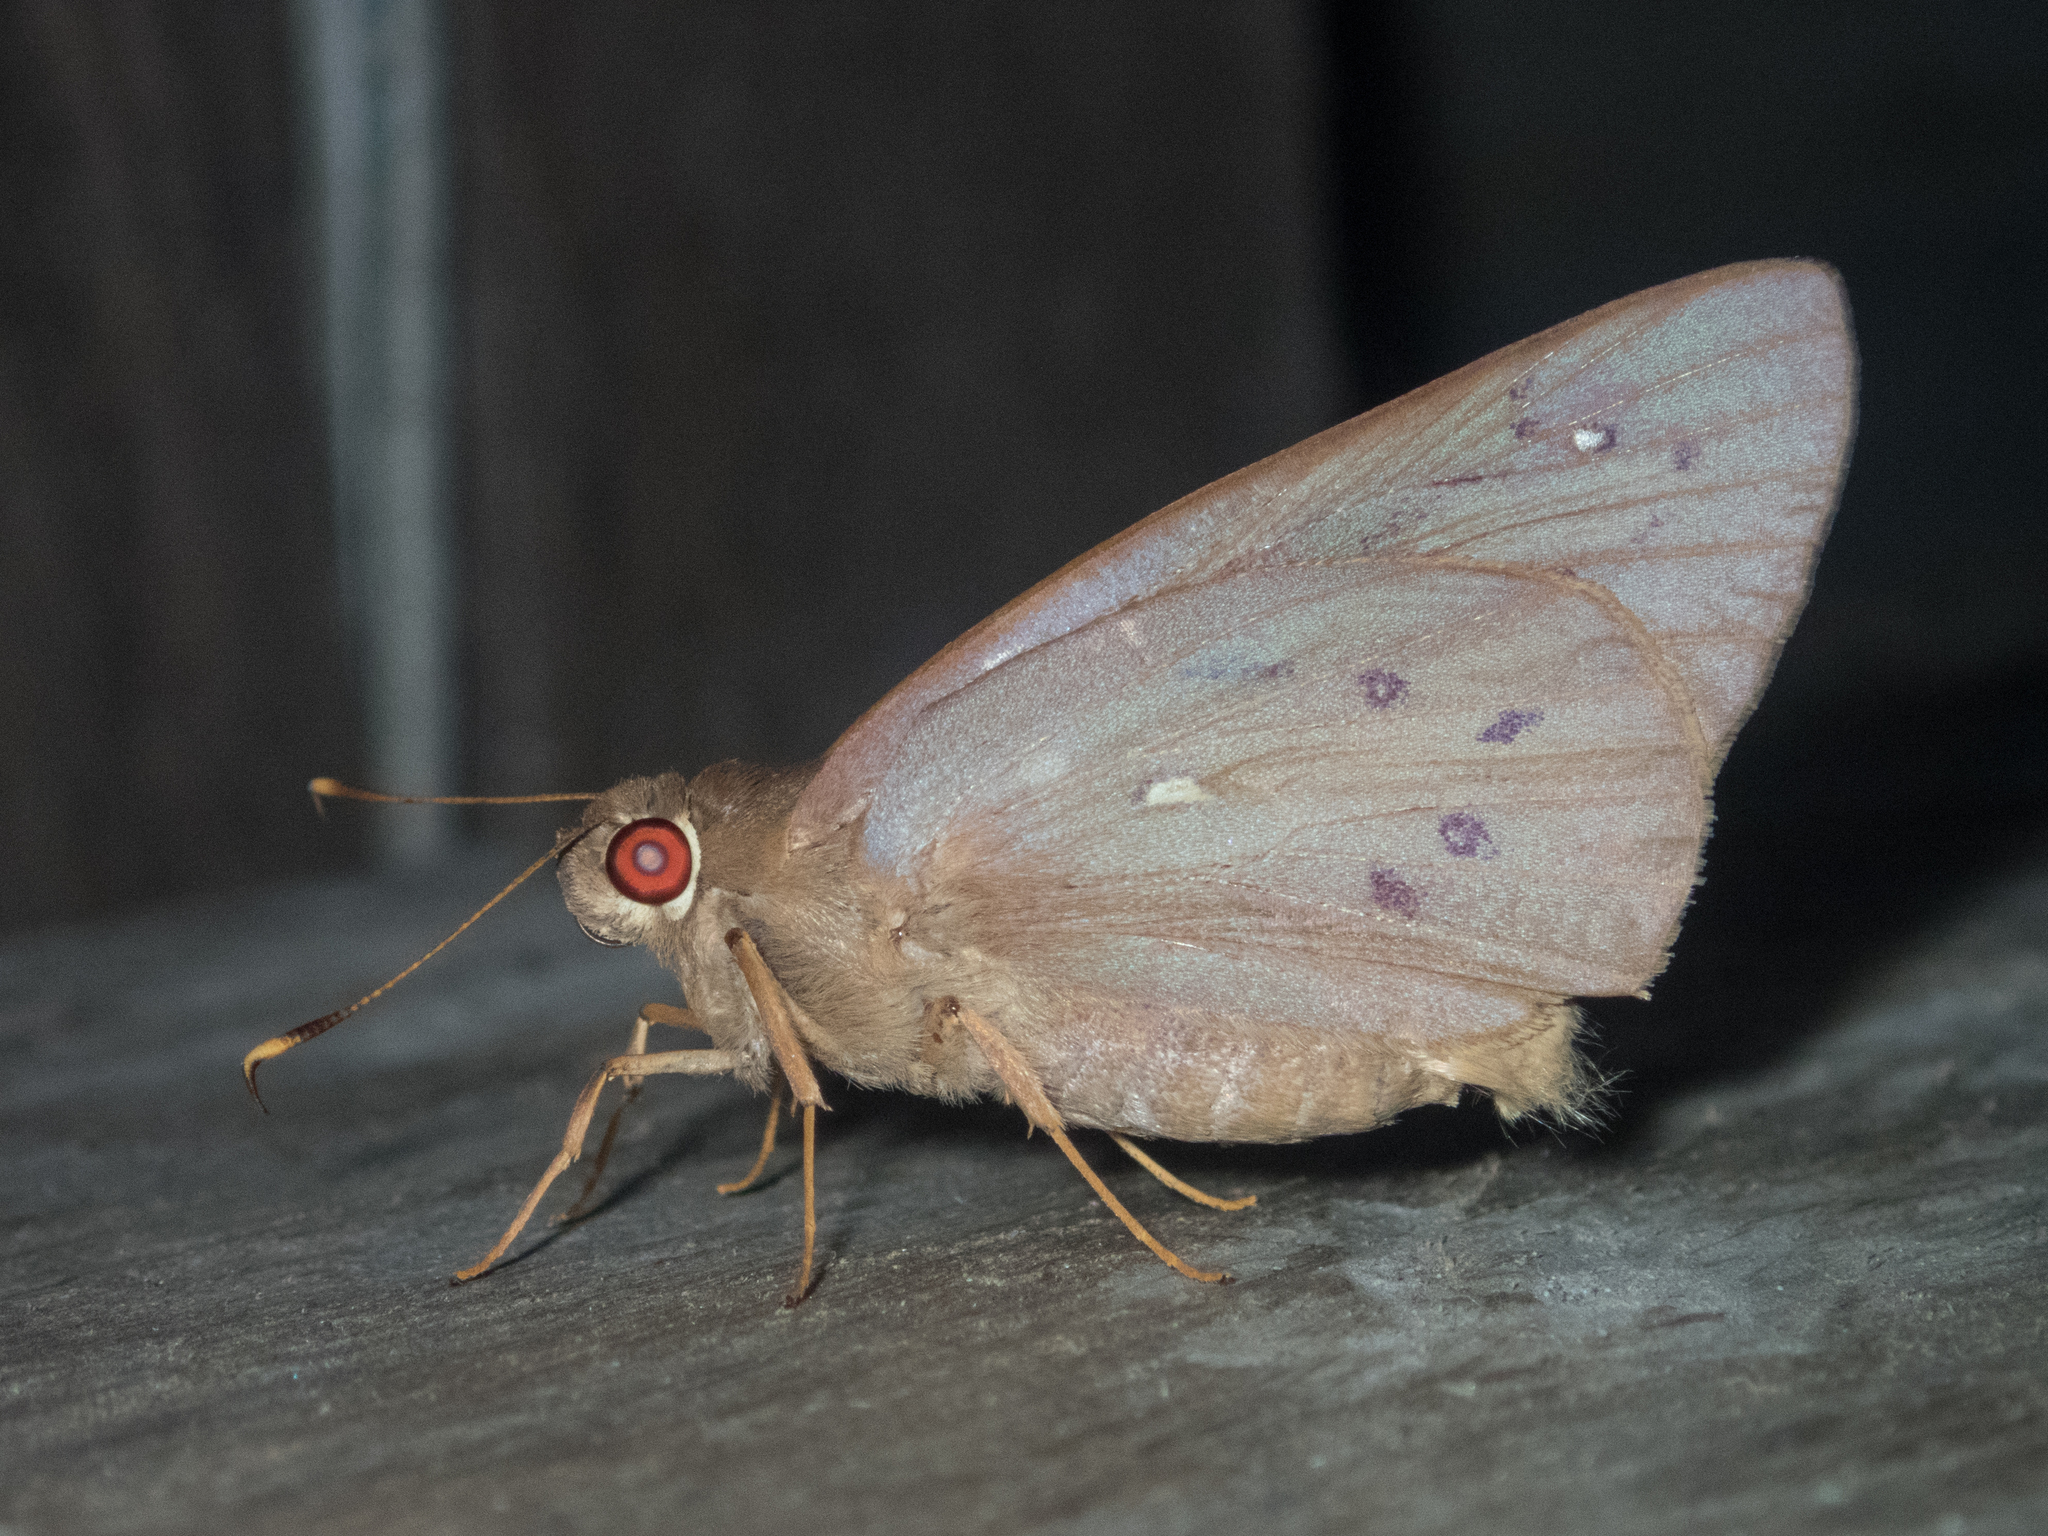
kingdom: Animalia
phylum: Arthropoda
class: Insecta
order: Lepidoptera
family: Hesperiidae
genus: Hidari
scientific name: Hidari irava
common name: Coconut skipper
